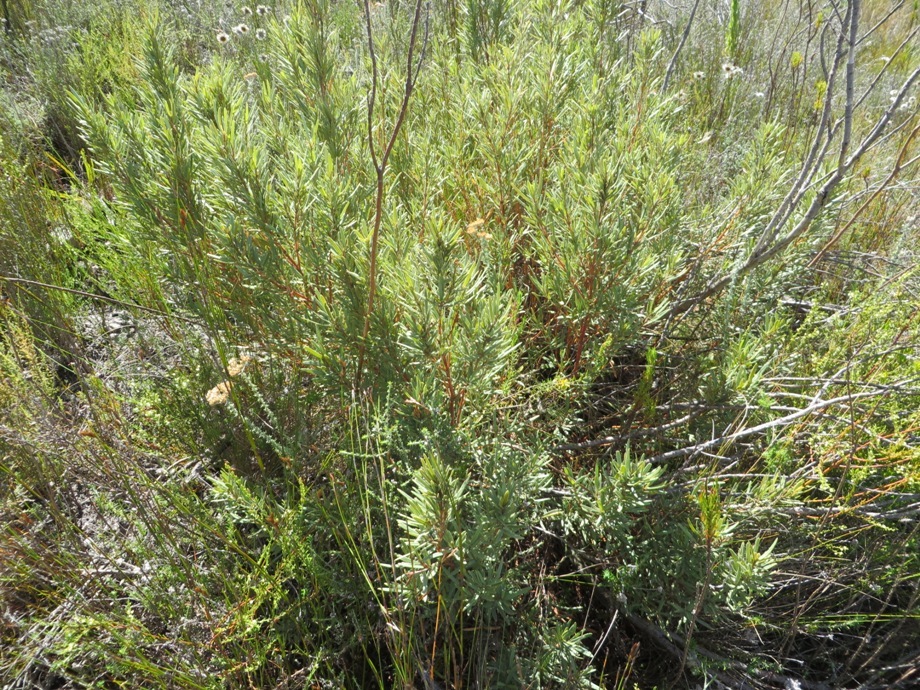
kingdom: Plantae
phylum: Tracheophyta
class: Magnoliopsida
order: Cornales
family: Grubbiaceae
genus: Grubbia
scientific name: Grubbia tomentosa
